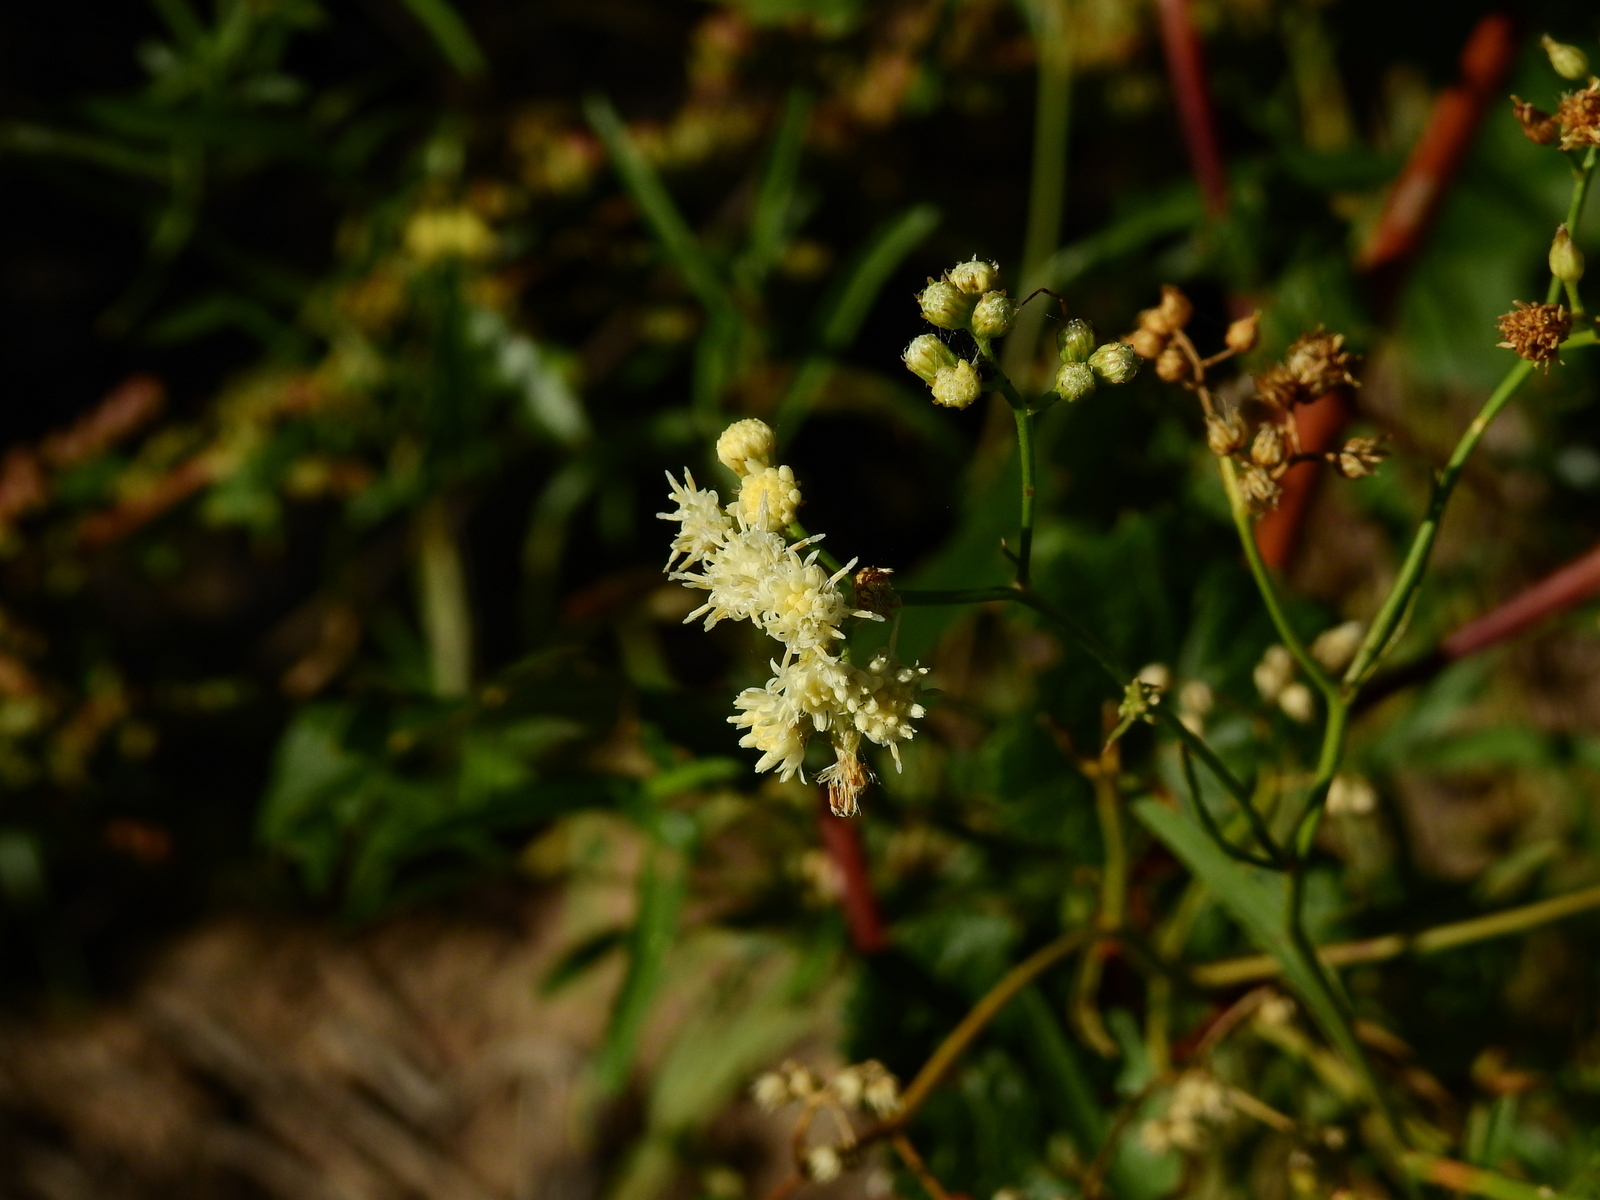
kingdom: Plantae
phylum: Tracheophyta
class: Magnoliopsida
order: Asterales
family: Asteraceae
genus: Baccharis
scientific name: Baccharis glutinosa
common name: Saltmarsh baccharis
